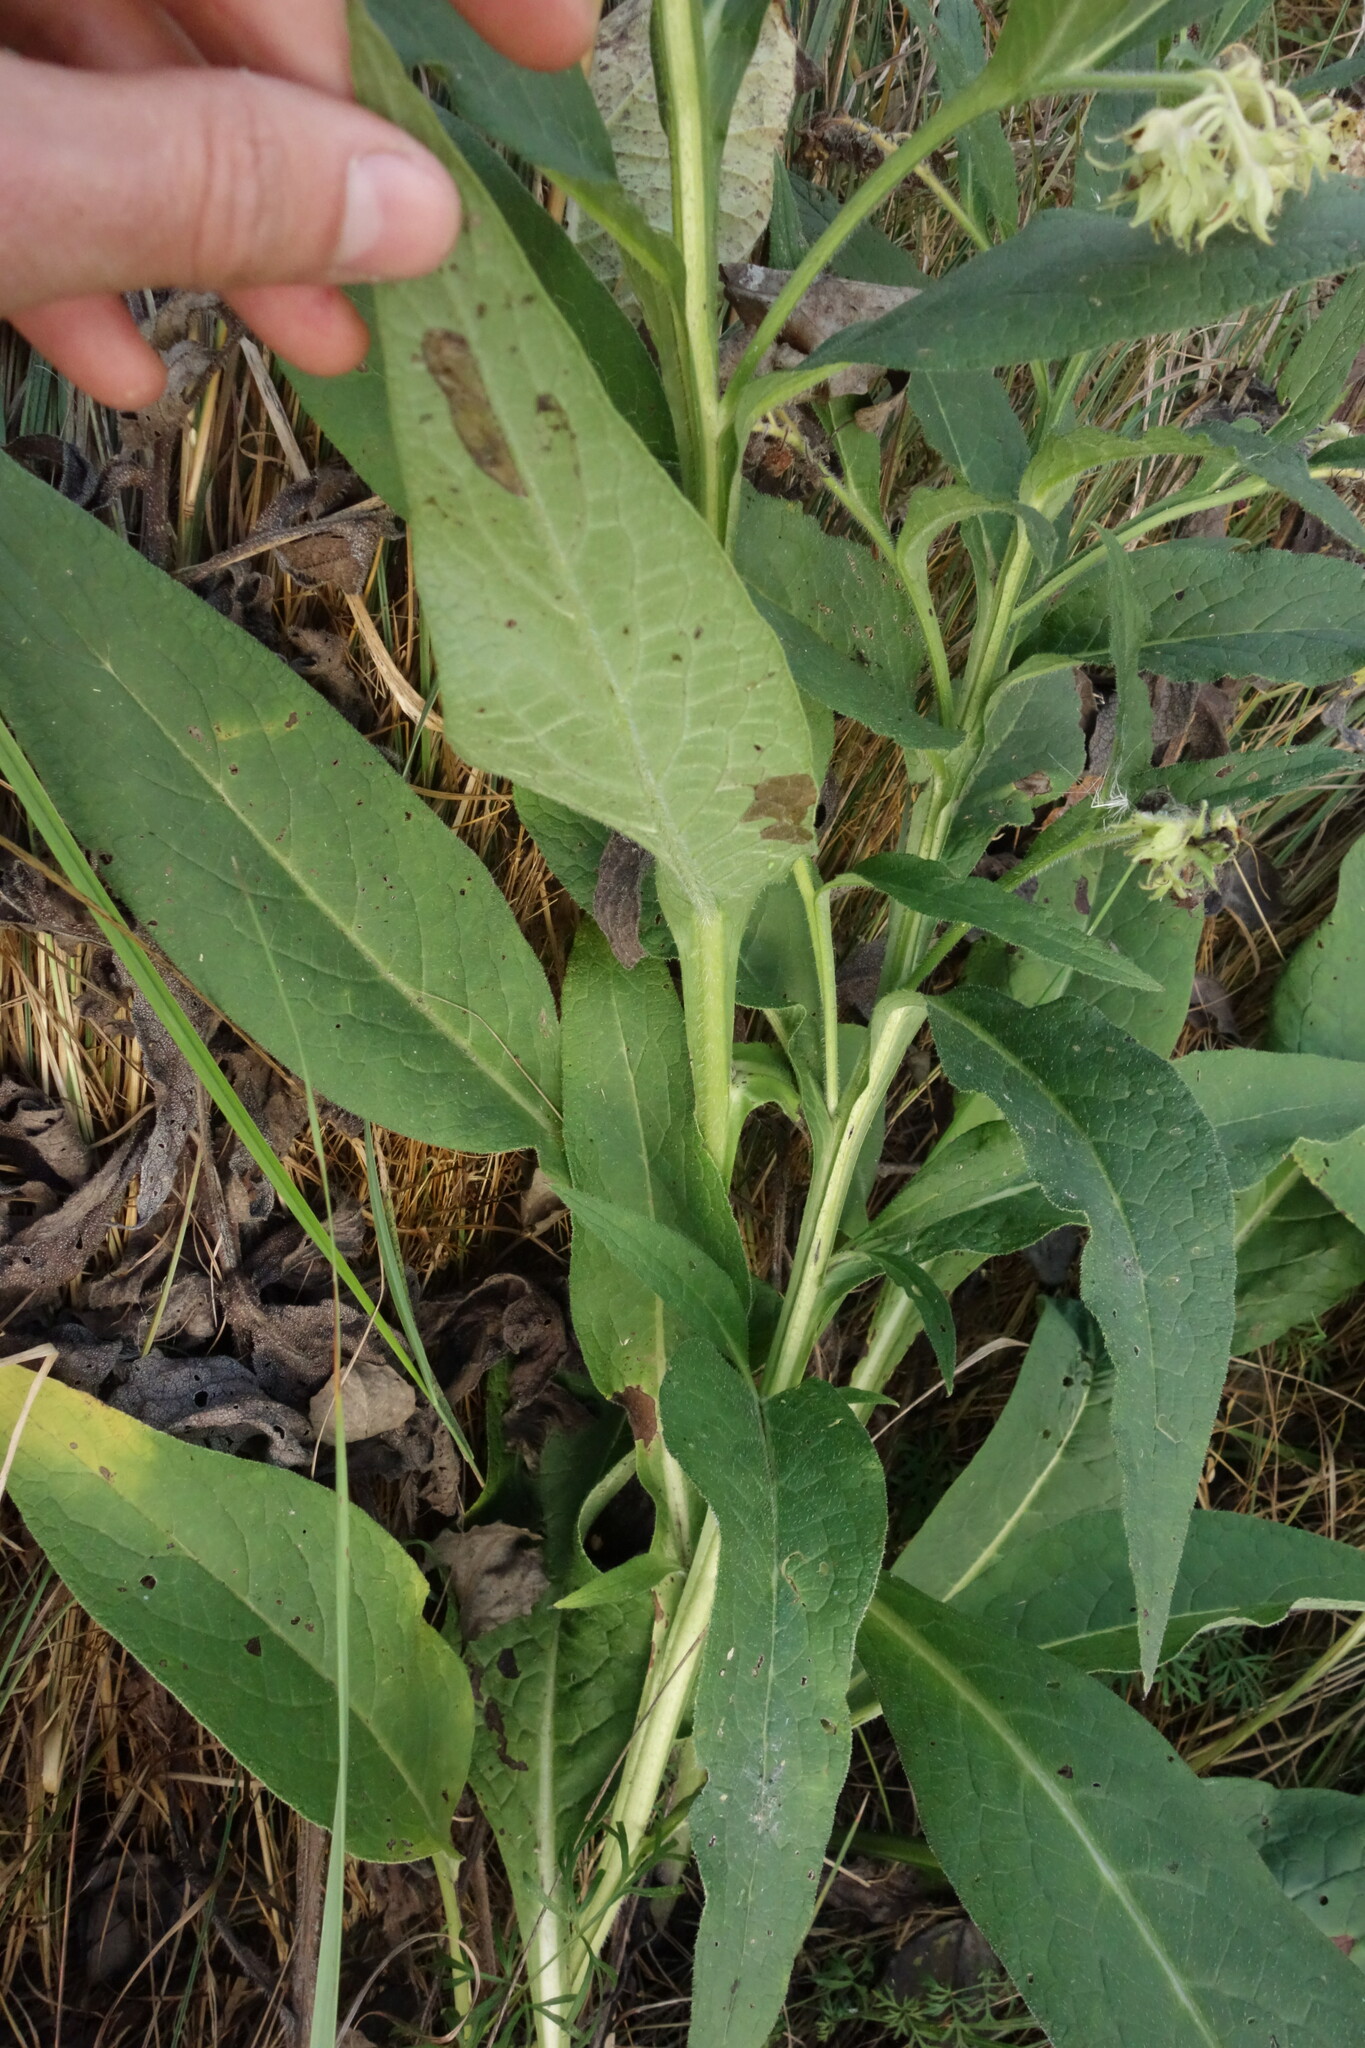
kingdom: Plantae
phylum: Tracheophyta
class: Magnoliopsida
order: Boraginales
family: Boraginaceae
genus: Symphytum
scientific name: Symphytum officinale
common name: Common comfrey
